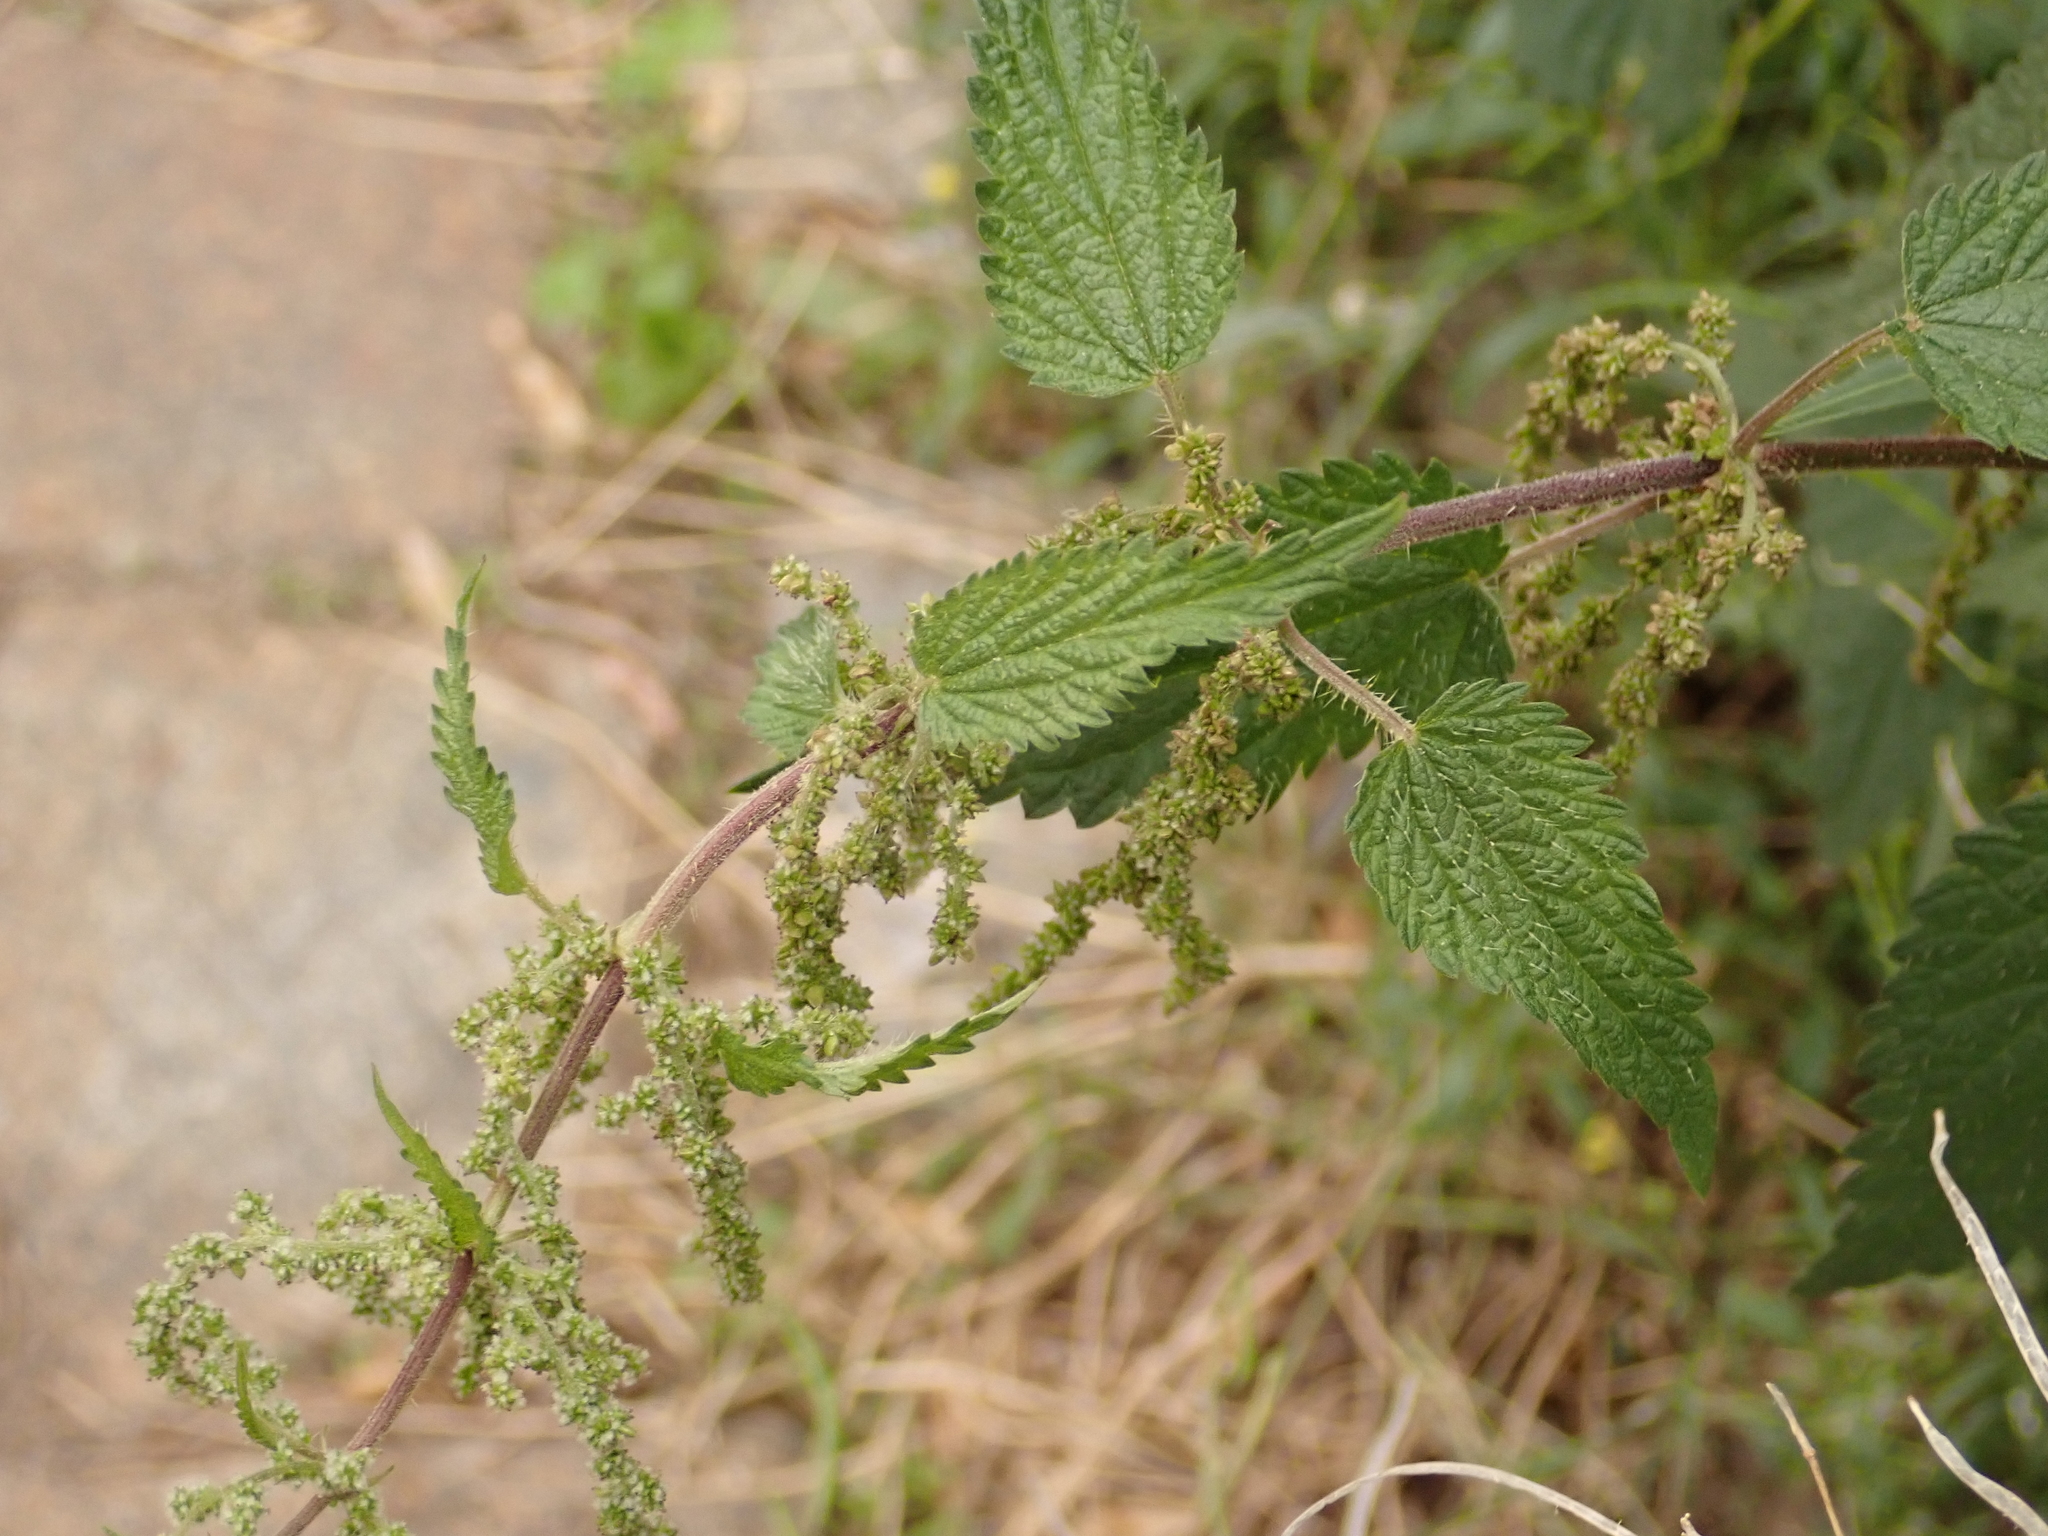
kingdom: Plantae
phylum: Tracheophyta
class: Magnoliopsida
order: Rosales
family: Urticaceae
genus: Urtica
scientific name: Urtica dioica
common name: Common nettle
